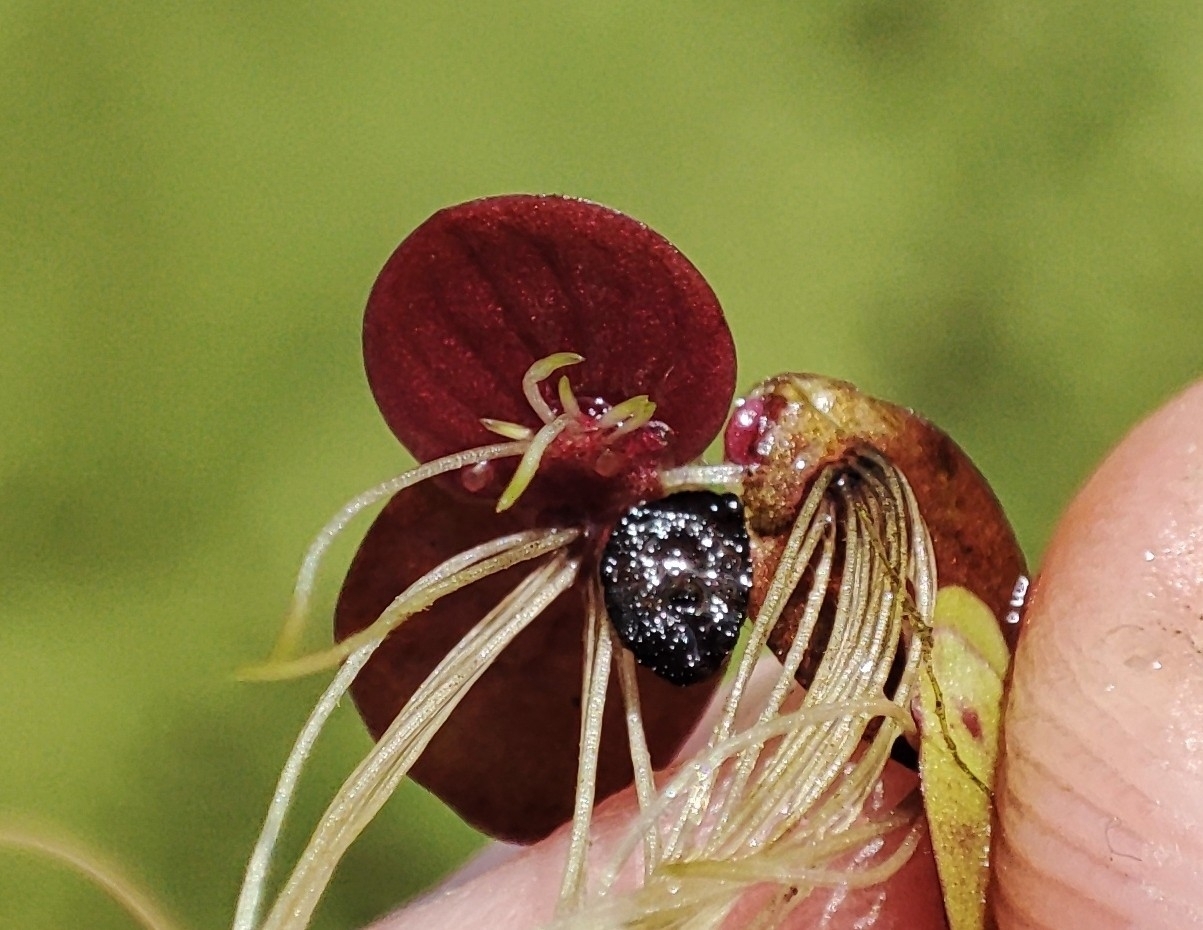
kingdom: Plantae
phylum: Tracheophyta
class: Liliopsida
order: Alismatales
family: Araceae
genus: Spirodela
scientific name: Spirodela polyrhiza
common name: Great duckweed
